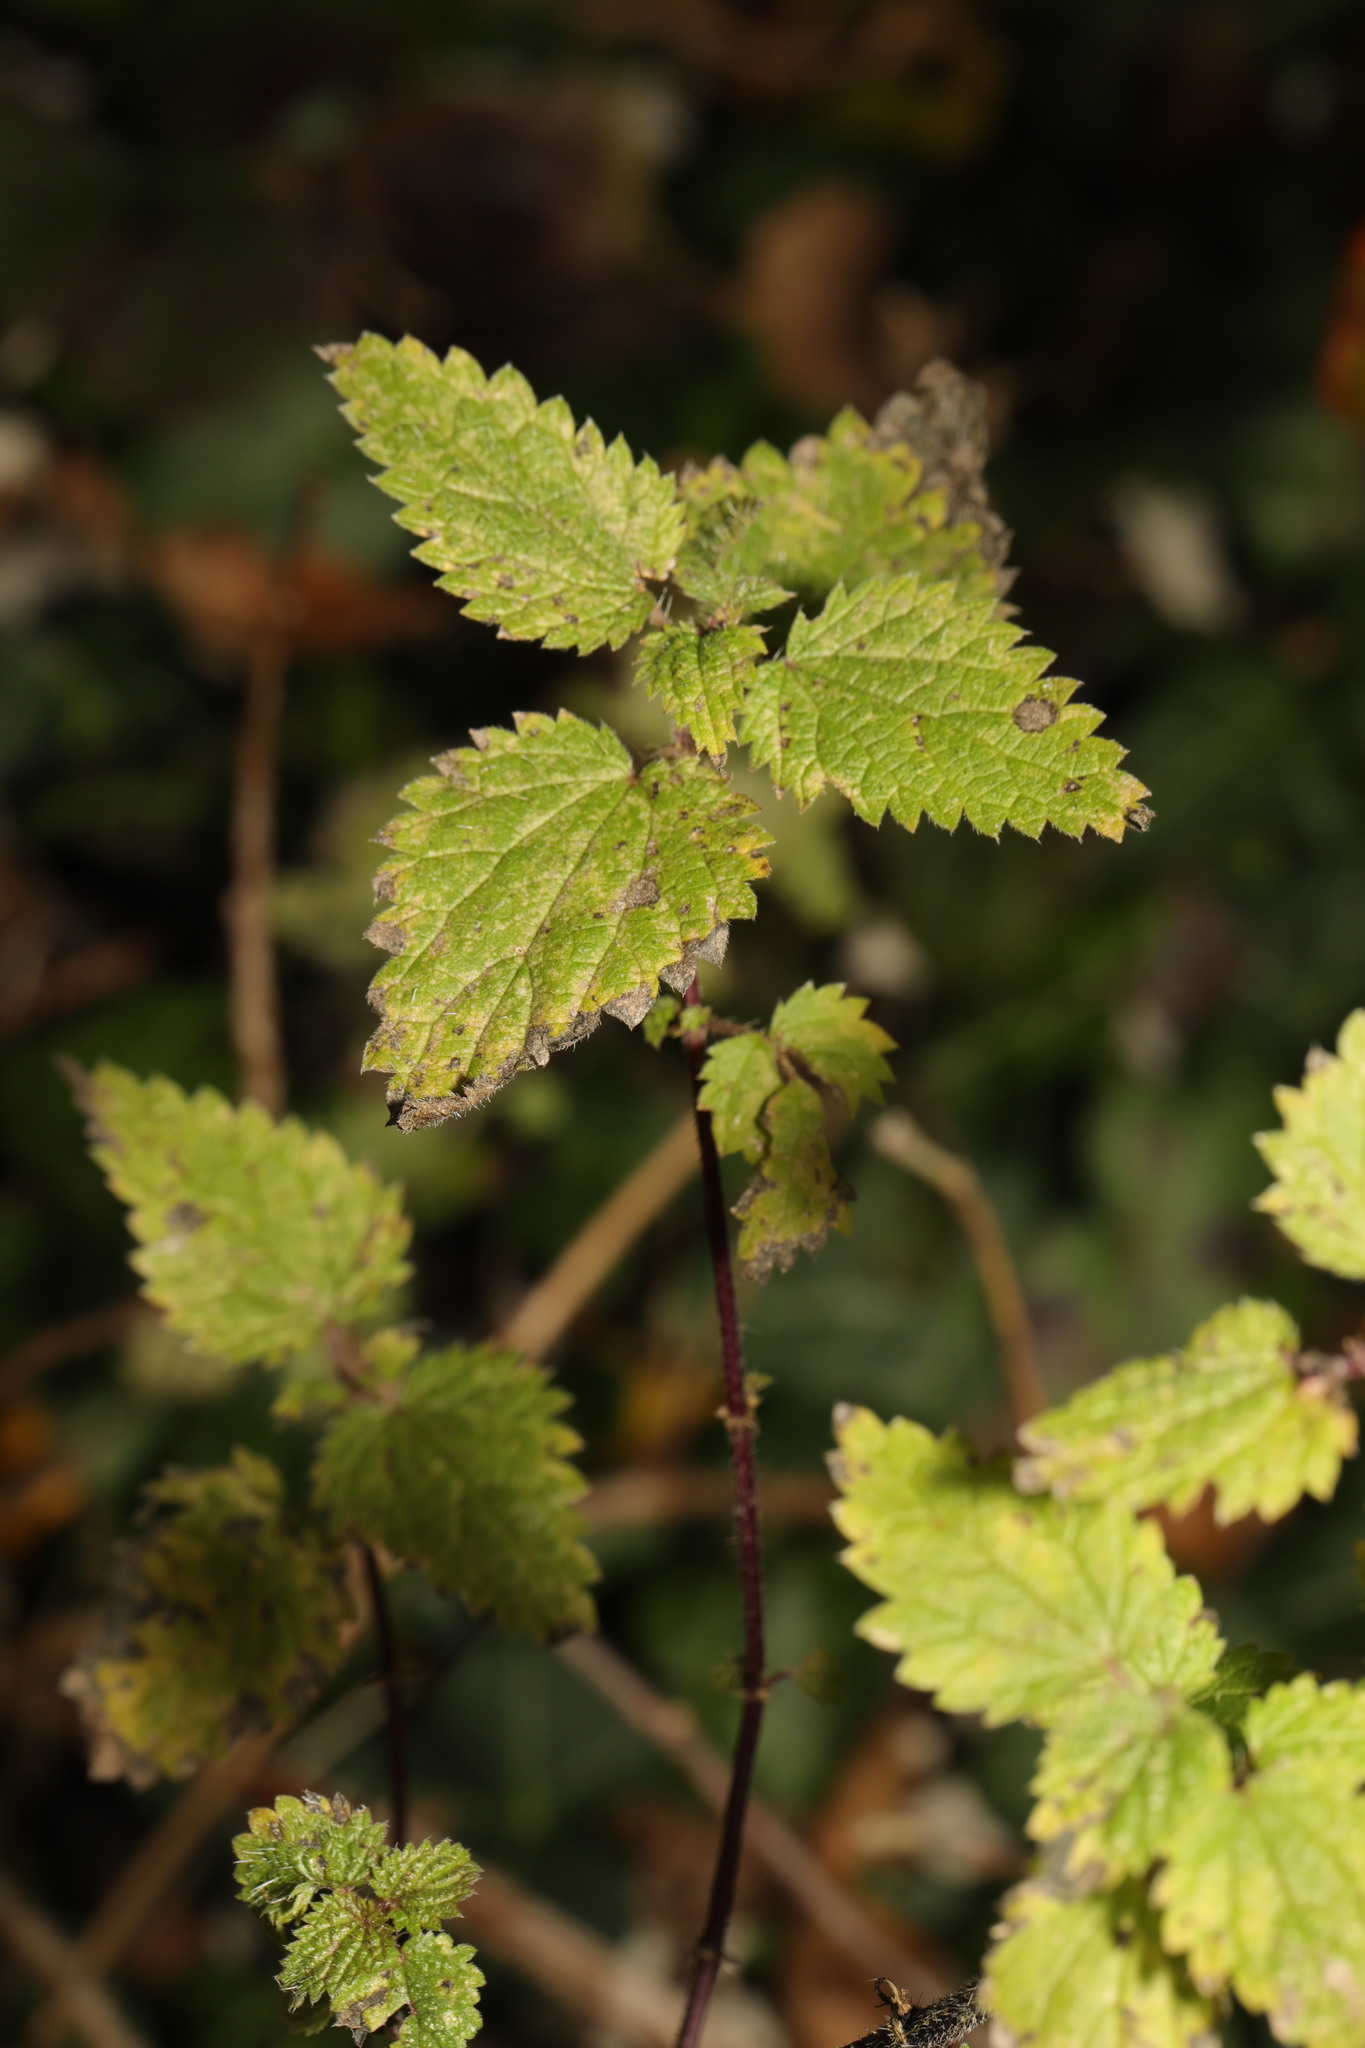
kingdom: Plantae
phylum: Tracheophyta
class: Magnoliopsida
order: Rosales
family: Urticaceae
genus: Urtica
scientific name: Urtica dioica
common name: Common nettle
